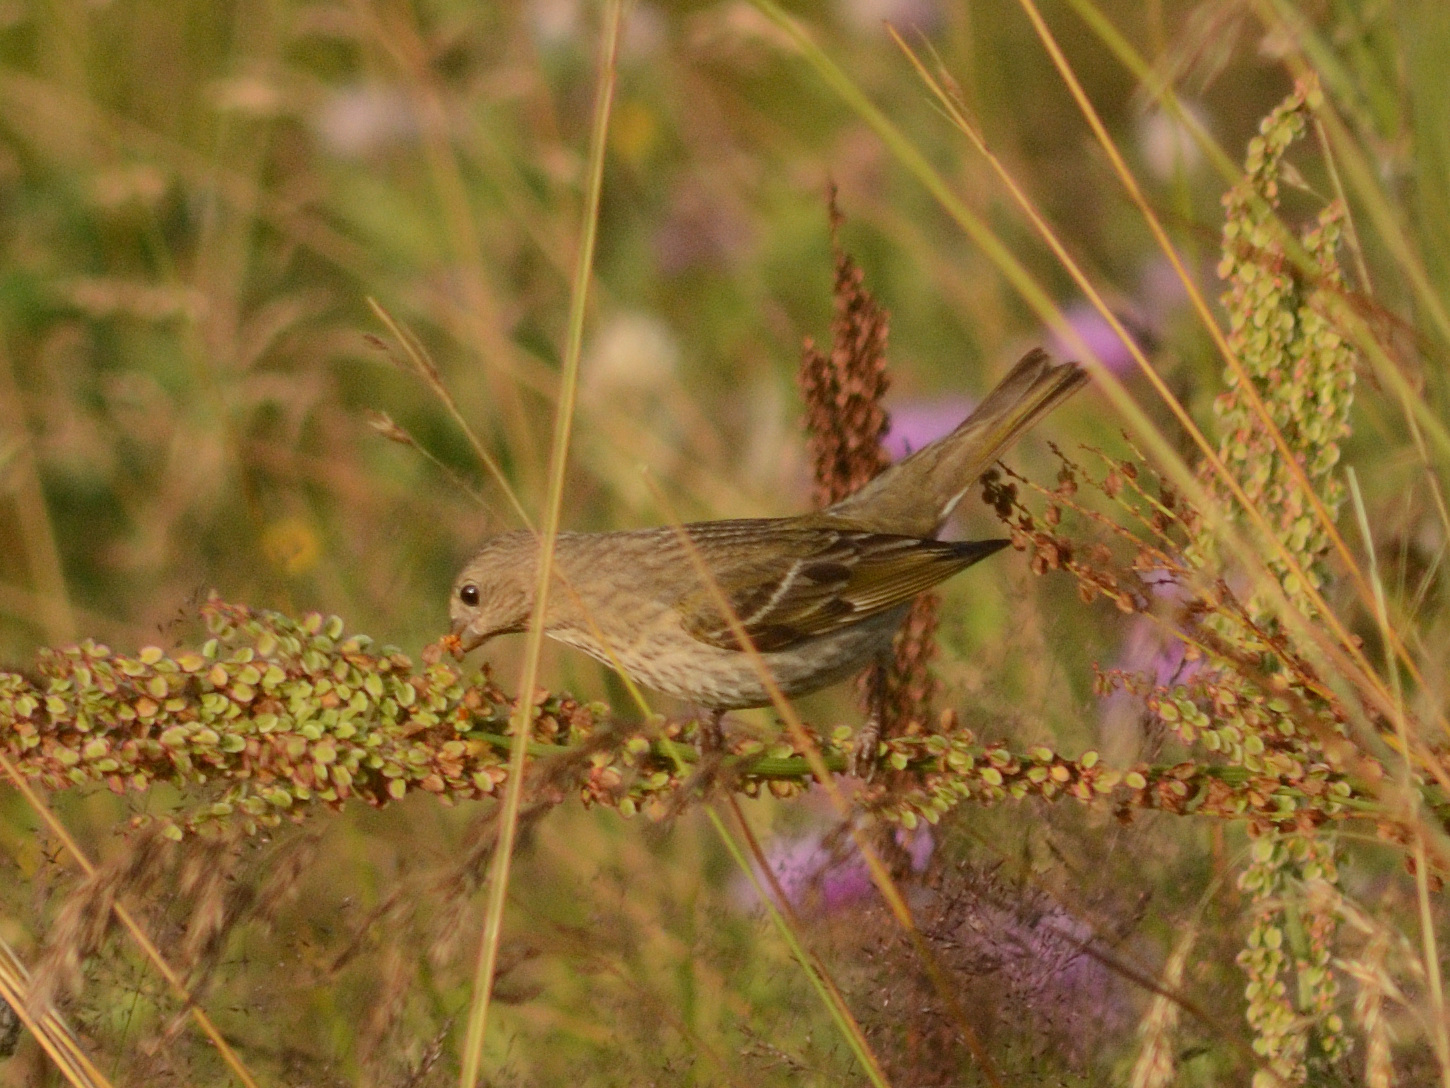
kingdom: Animalia
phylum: Chordata
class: Aves
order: Passeriformes
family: Fringillidae
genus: Carpodacus
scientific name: Carpodacus erythrinus
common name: Common rosefinch
